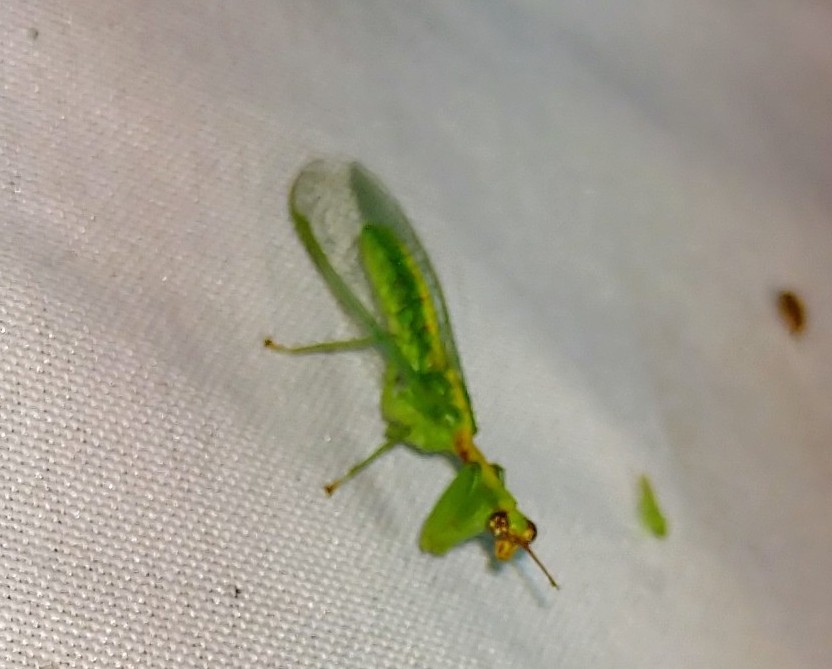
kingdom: Animalia
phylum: Arthropoda
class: Insecta
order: Neuroptera
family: Mantispidae
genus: Zeugomantispa
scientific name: Zeugomantispa minuta
